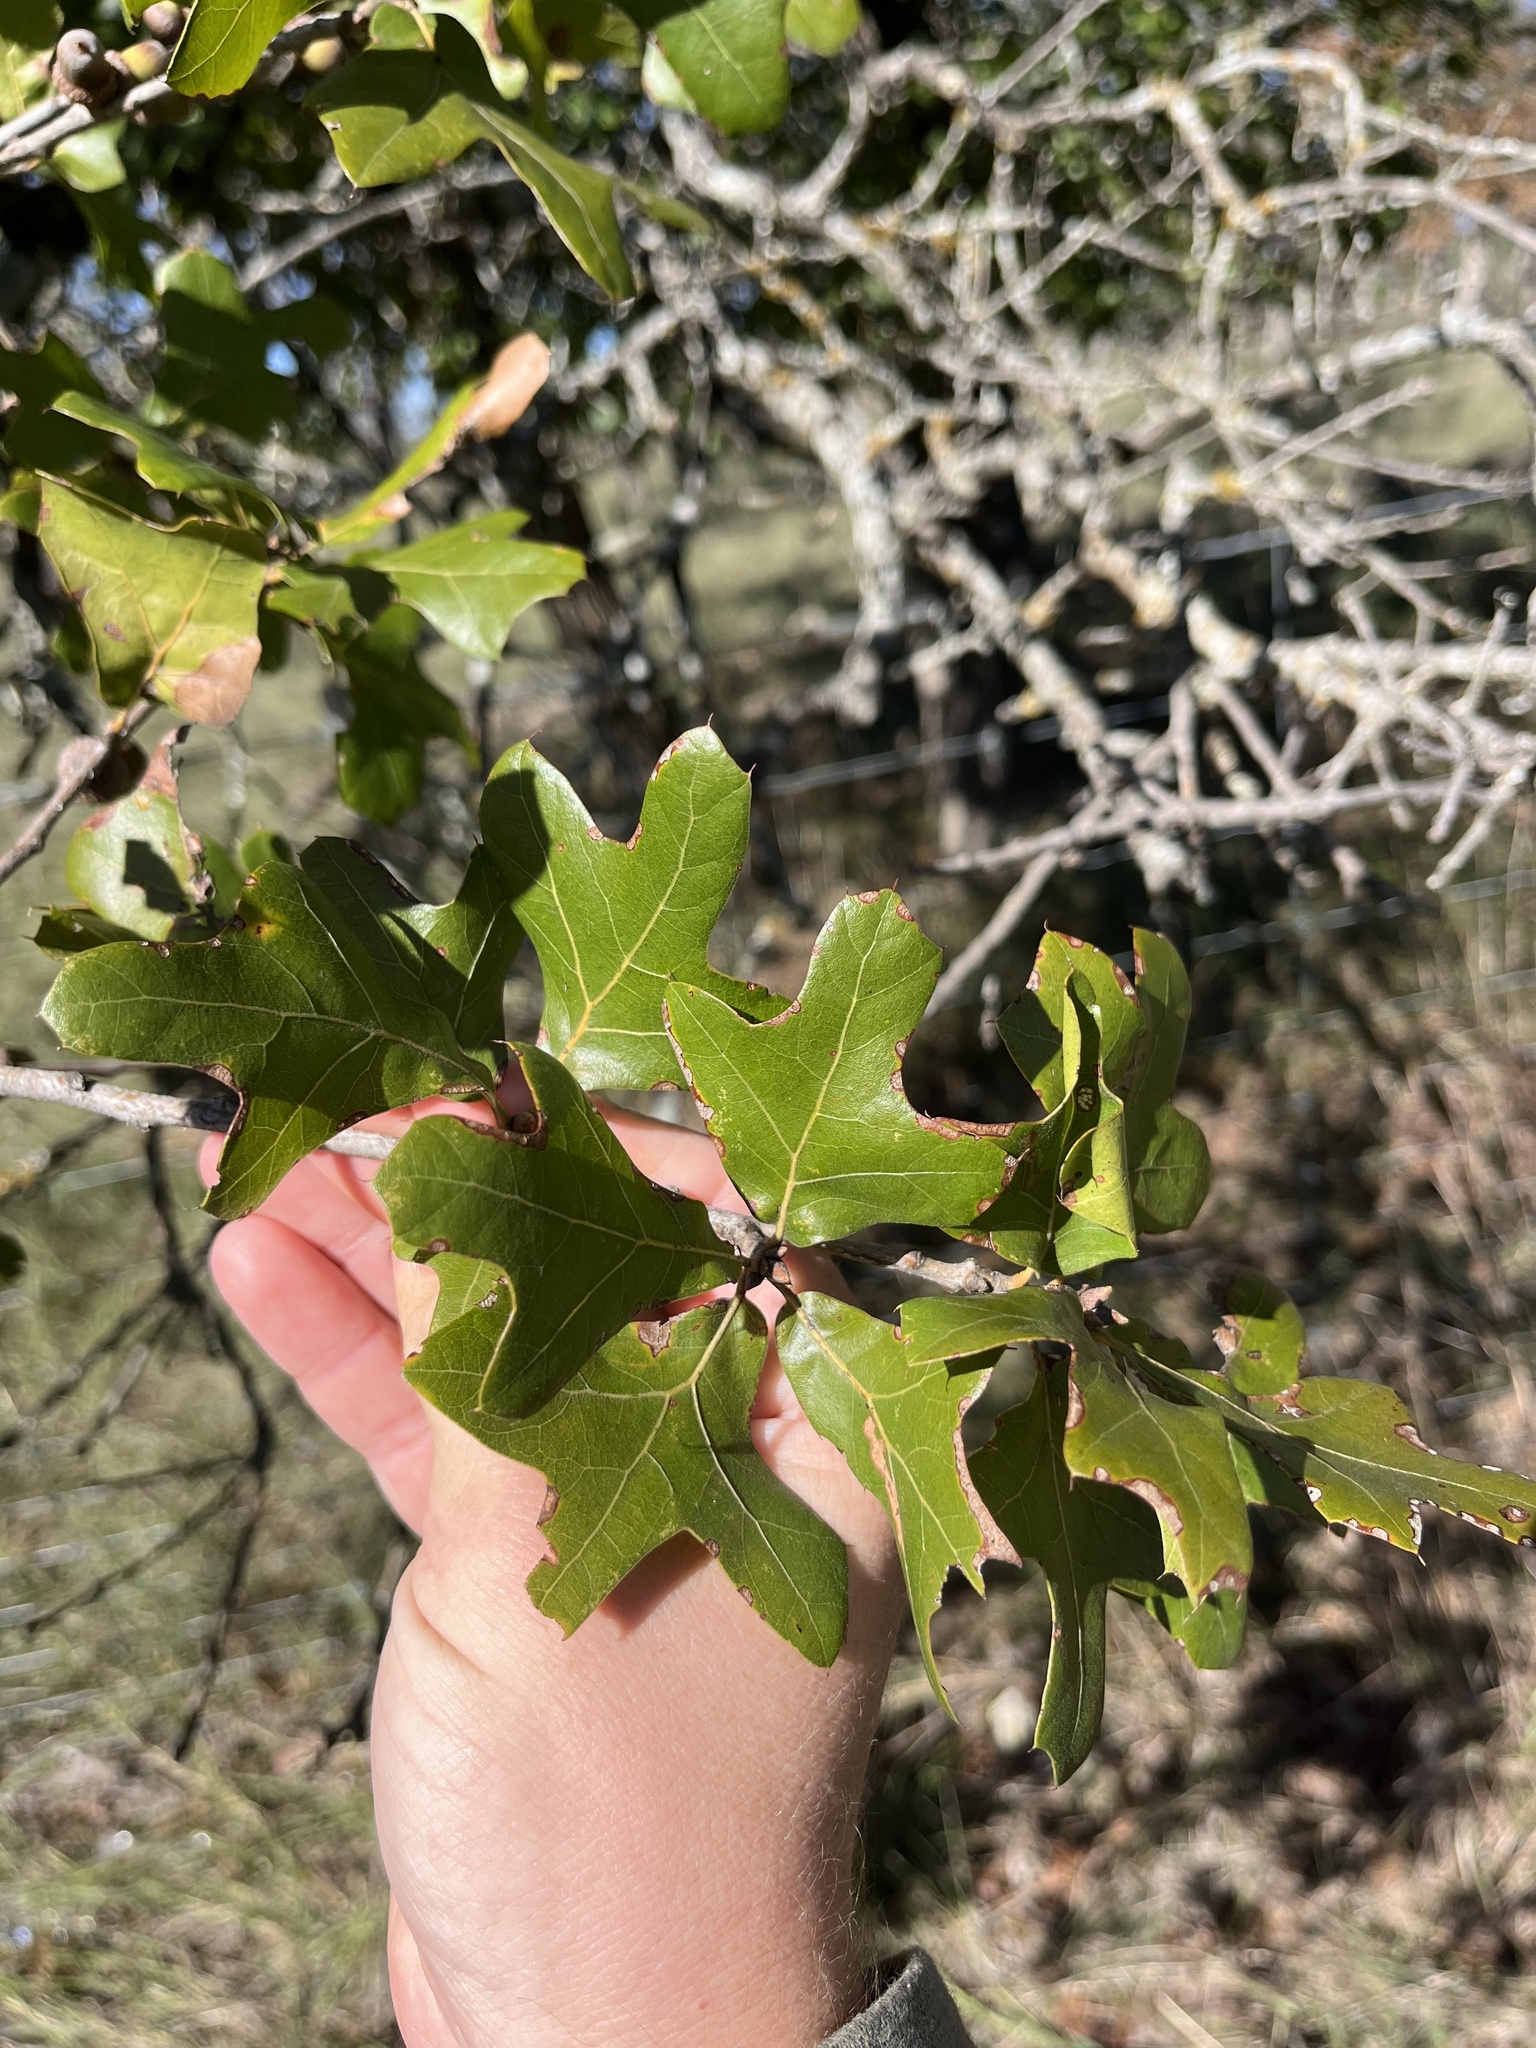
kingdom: Plantae
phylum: Tracheophyta
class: Magnoliopsida
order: Fagales
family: Fagaceae
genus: Quercus
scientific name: Quercus marilandica
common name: Blackjack oak
